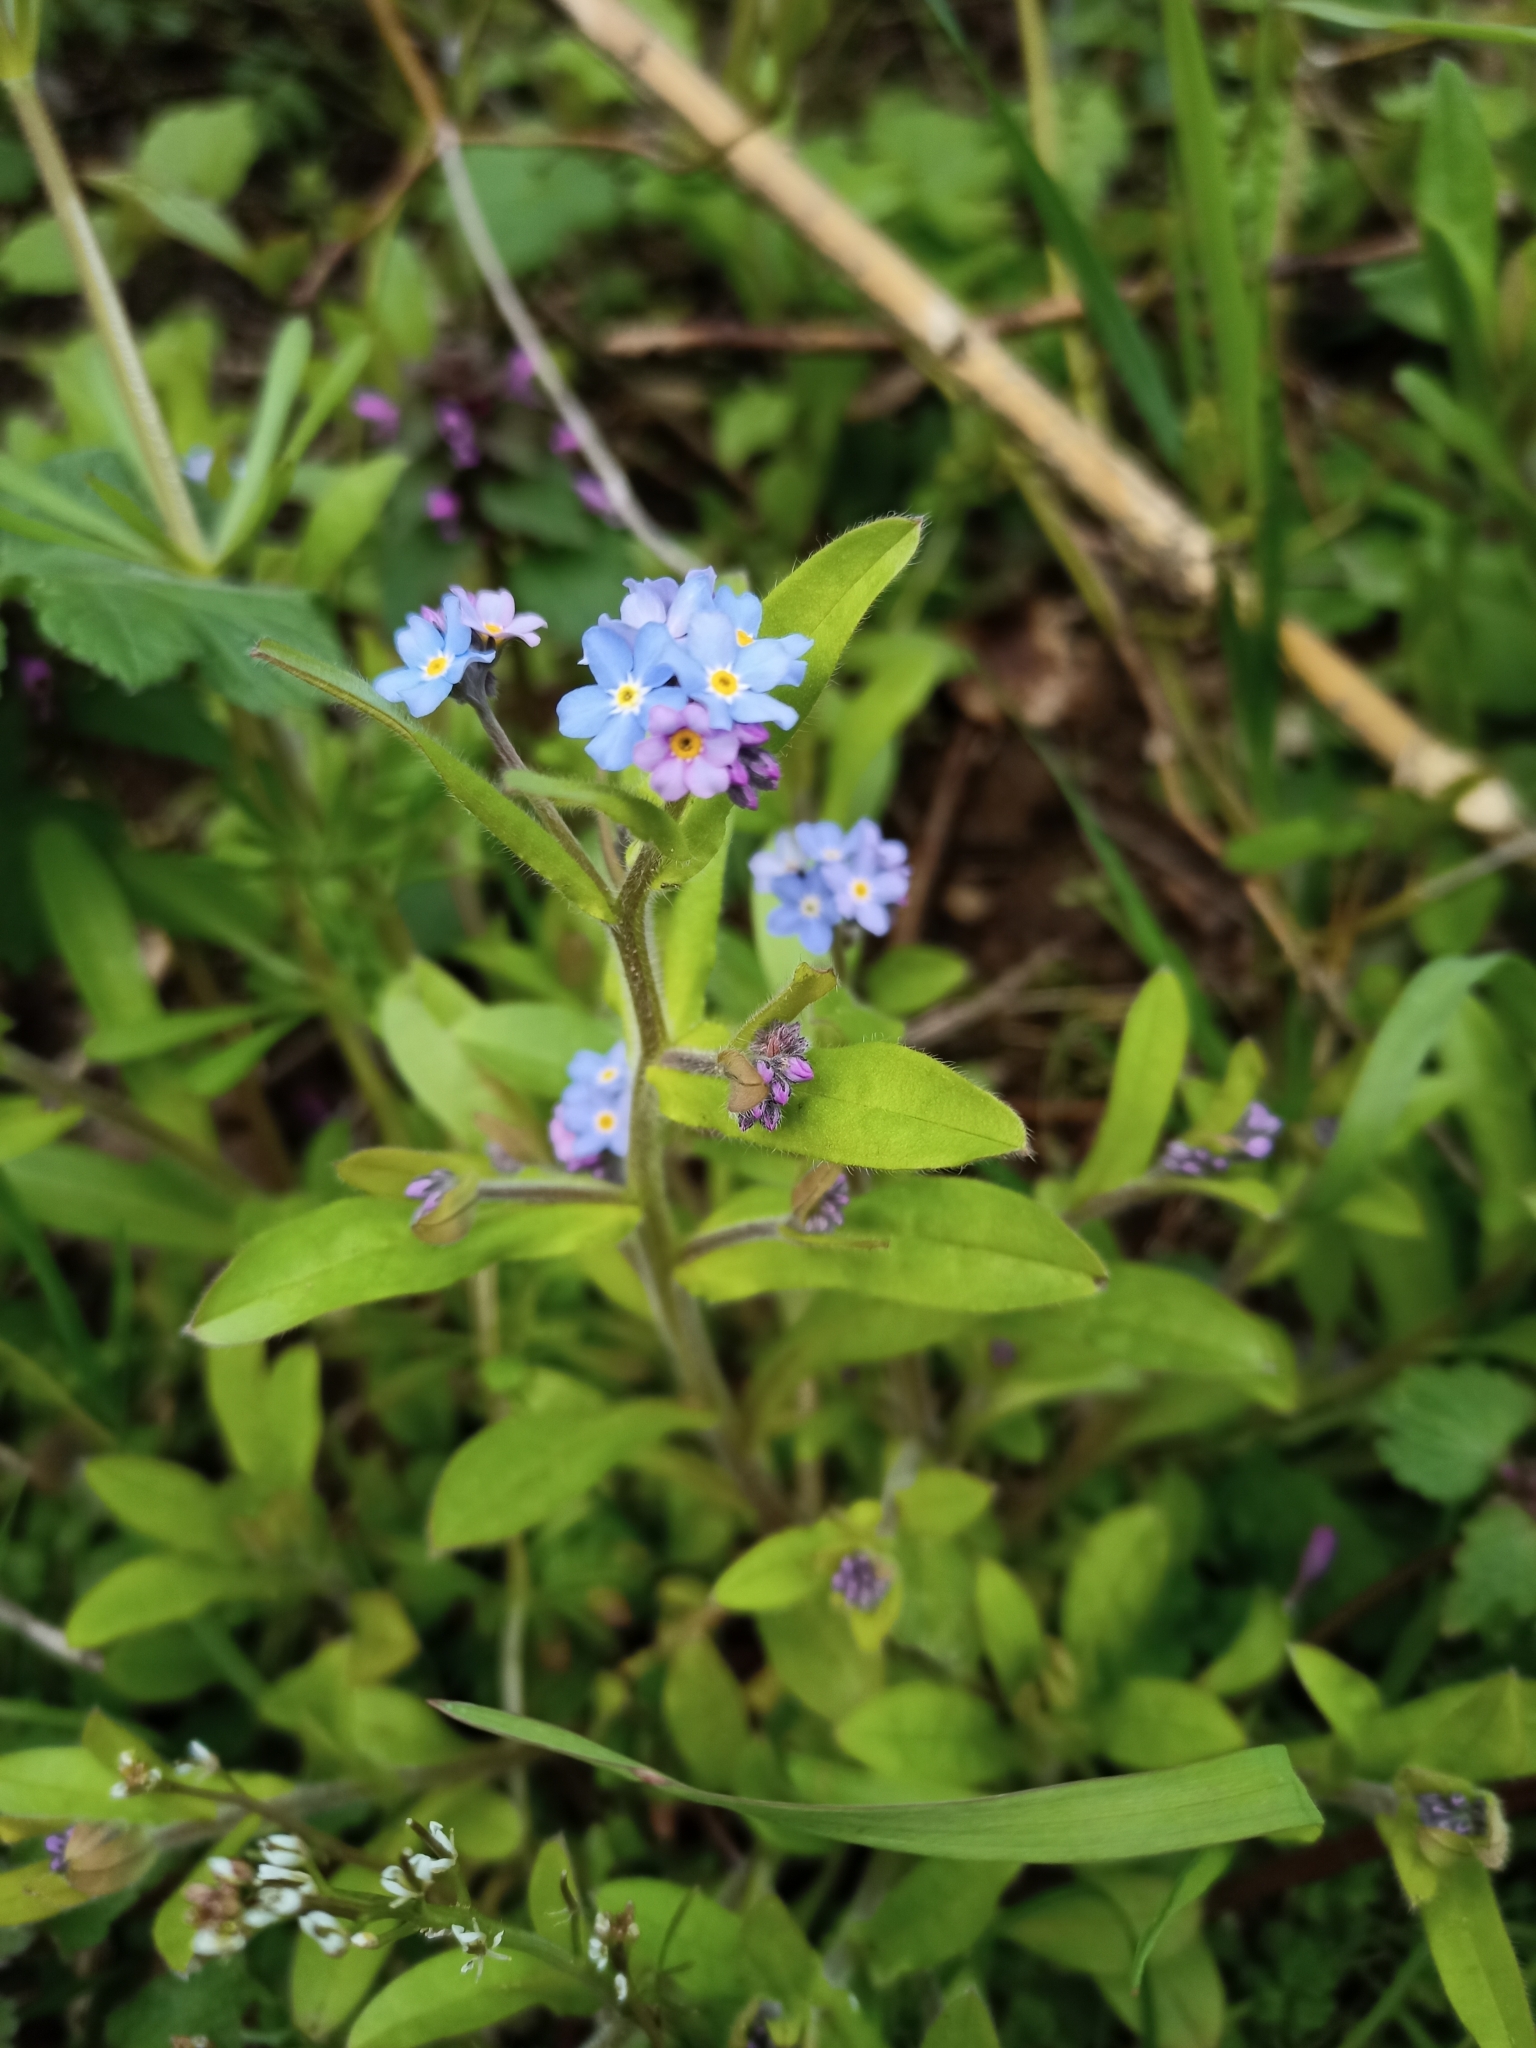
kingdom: Plantae
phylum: Tracheophyta
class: Magnoliopsida
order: Boraginales
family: Boraginaceae
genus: Myosotis
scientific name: Myosotis sylvatica
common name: Wood forget-me-not
